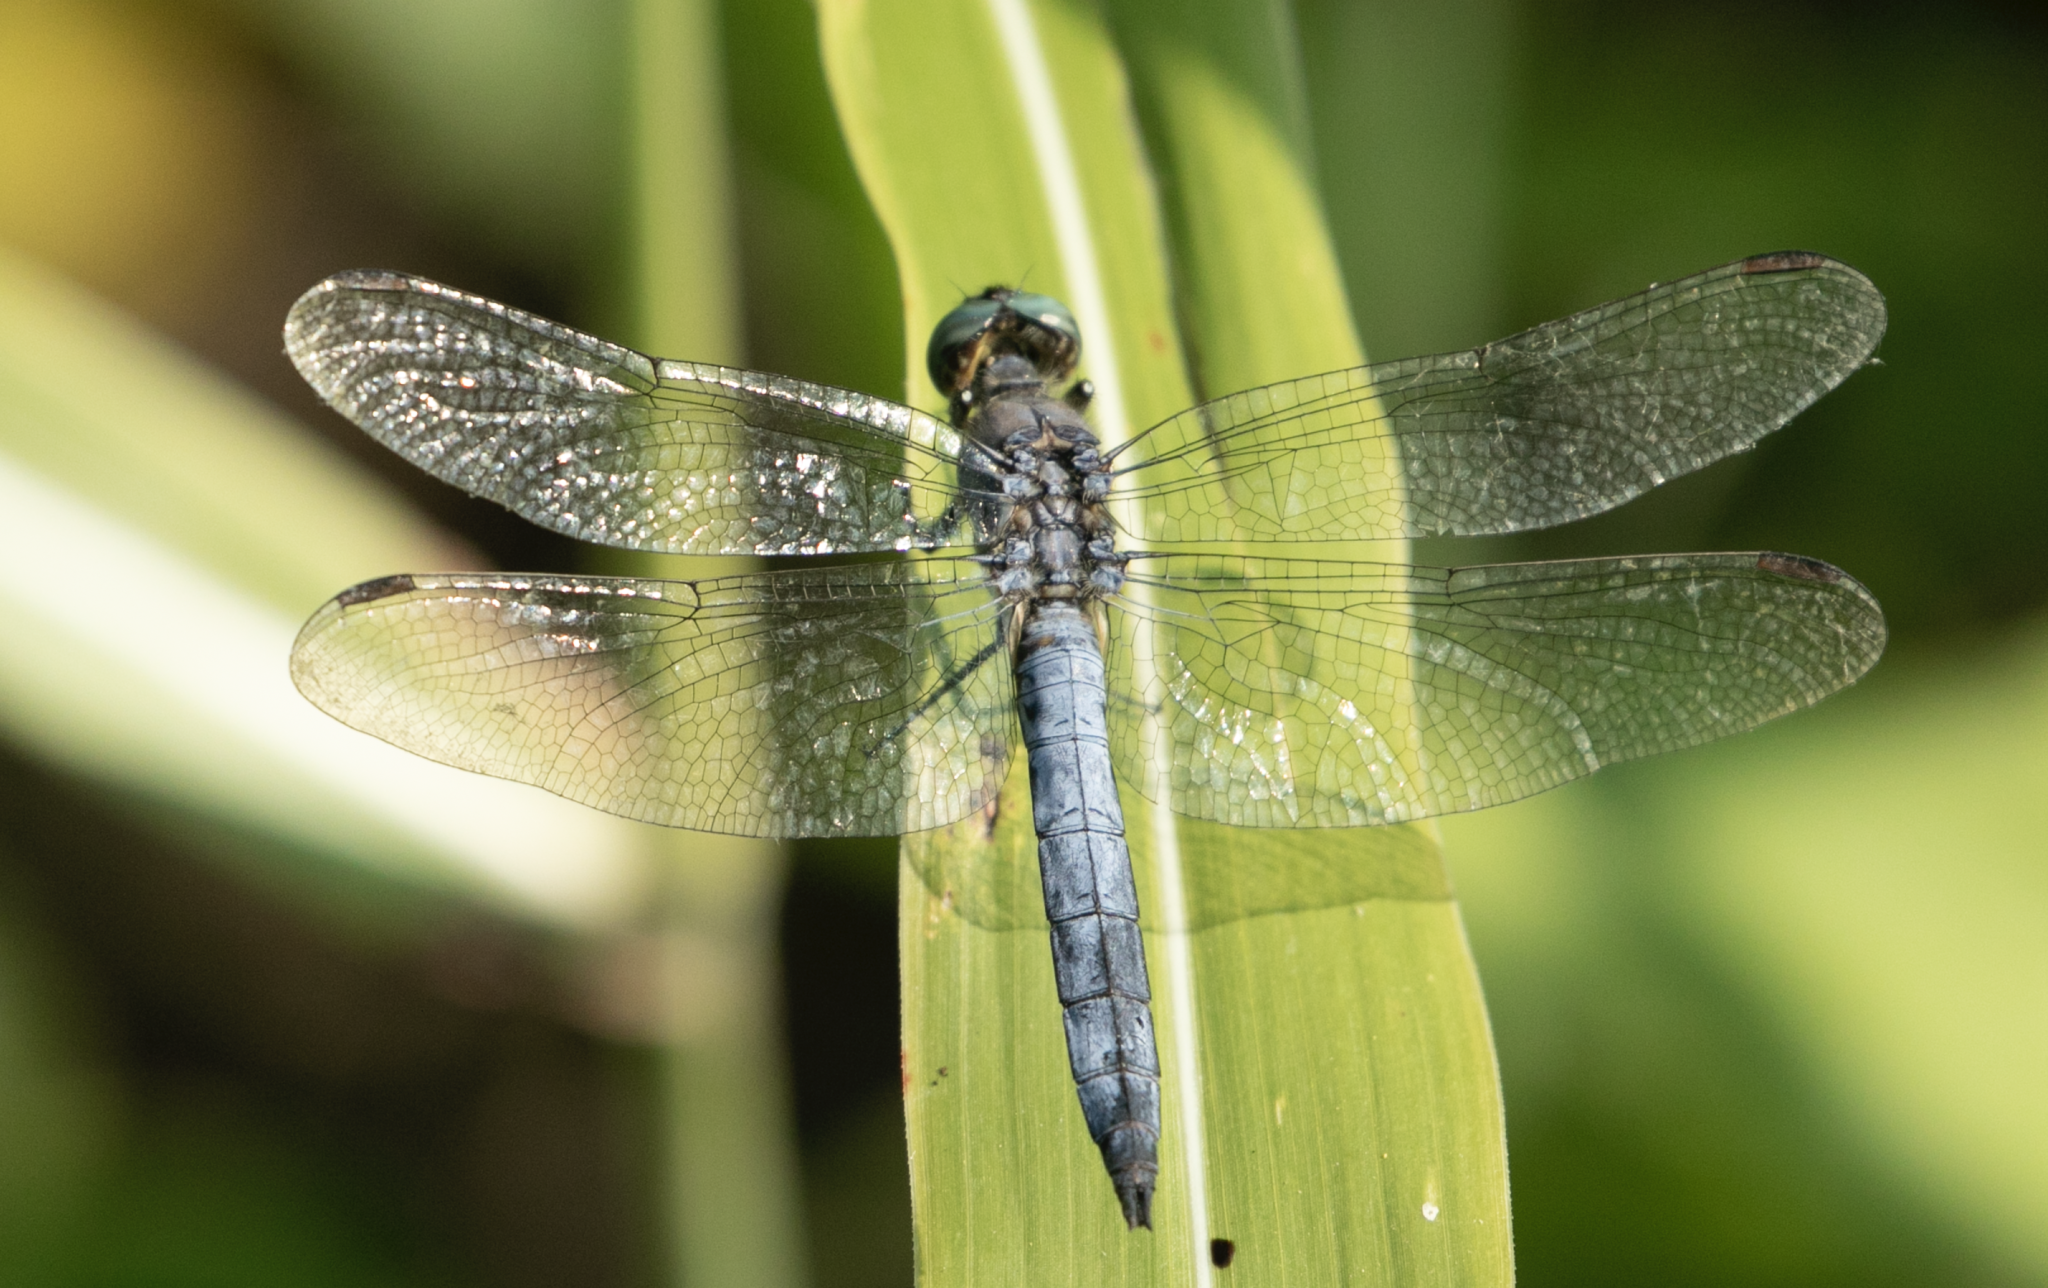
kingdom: Animalia
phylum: Arthropoda
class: Insecta
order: Odonata
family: Libellulidae
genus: Orthetrum
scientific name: Orthetrum coerulescens
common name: Keeled skimmer
